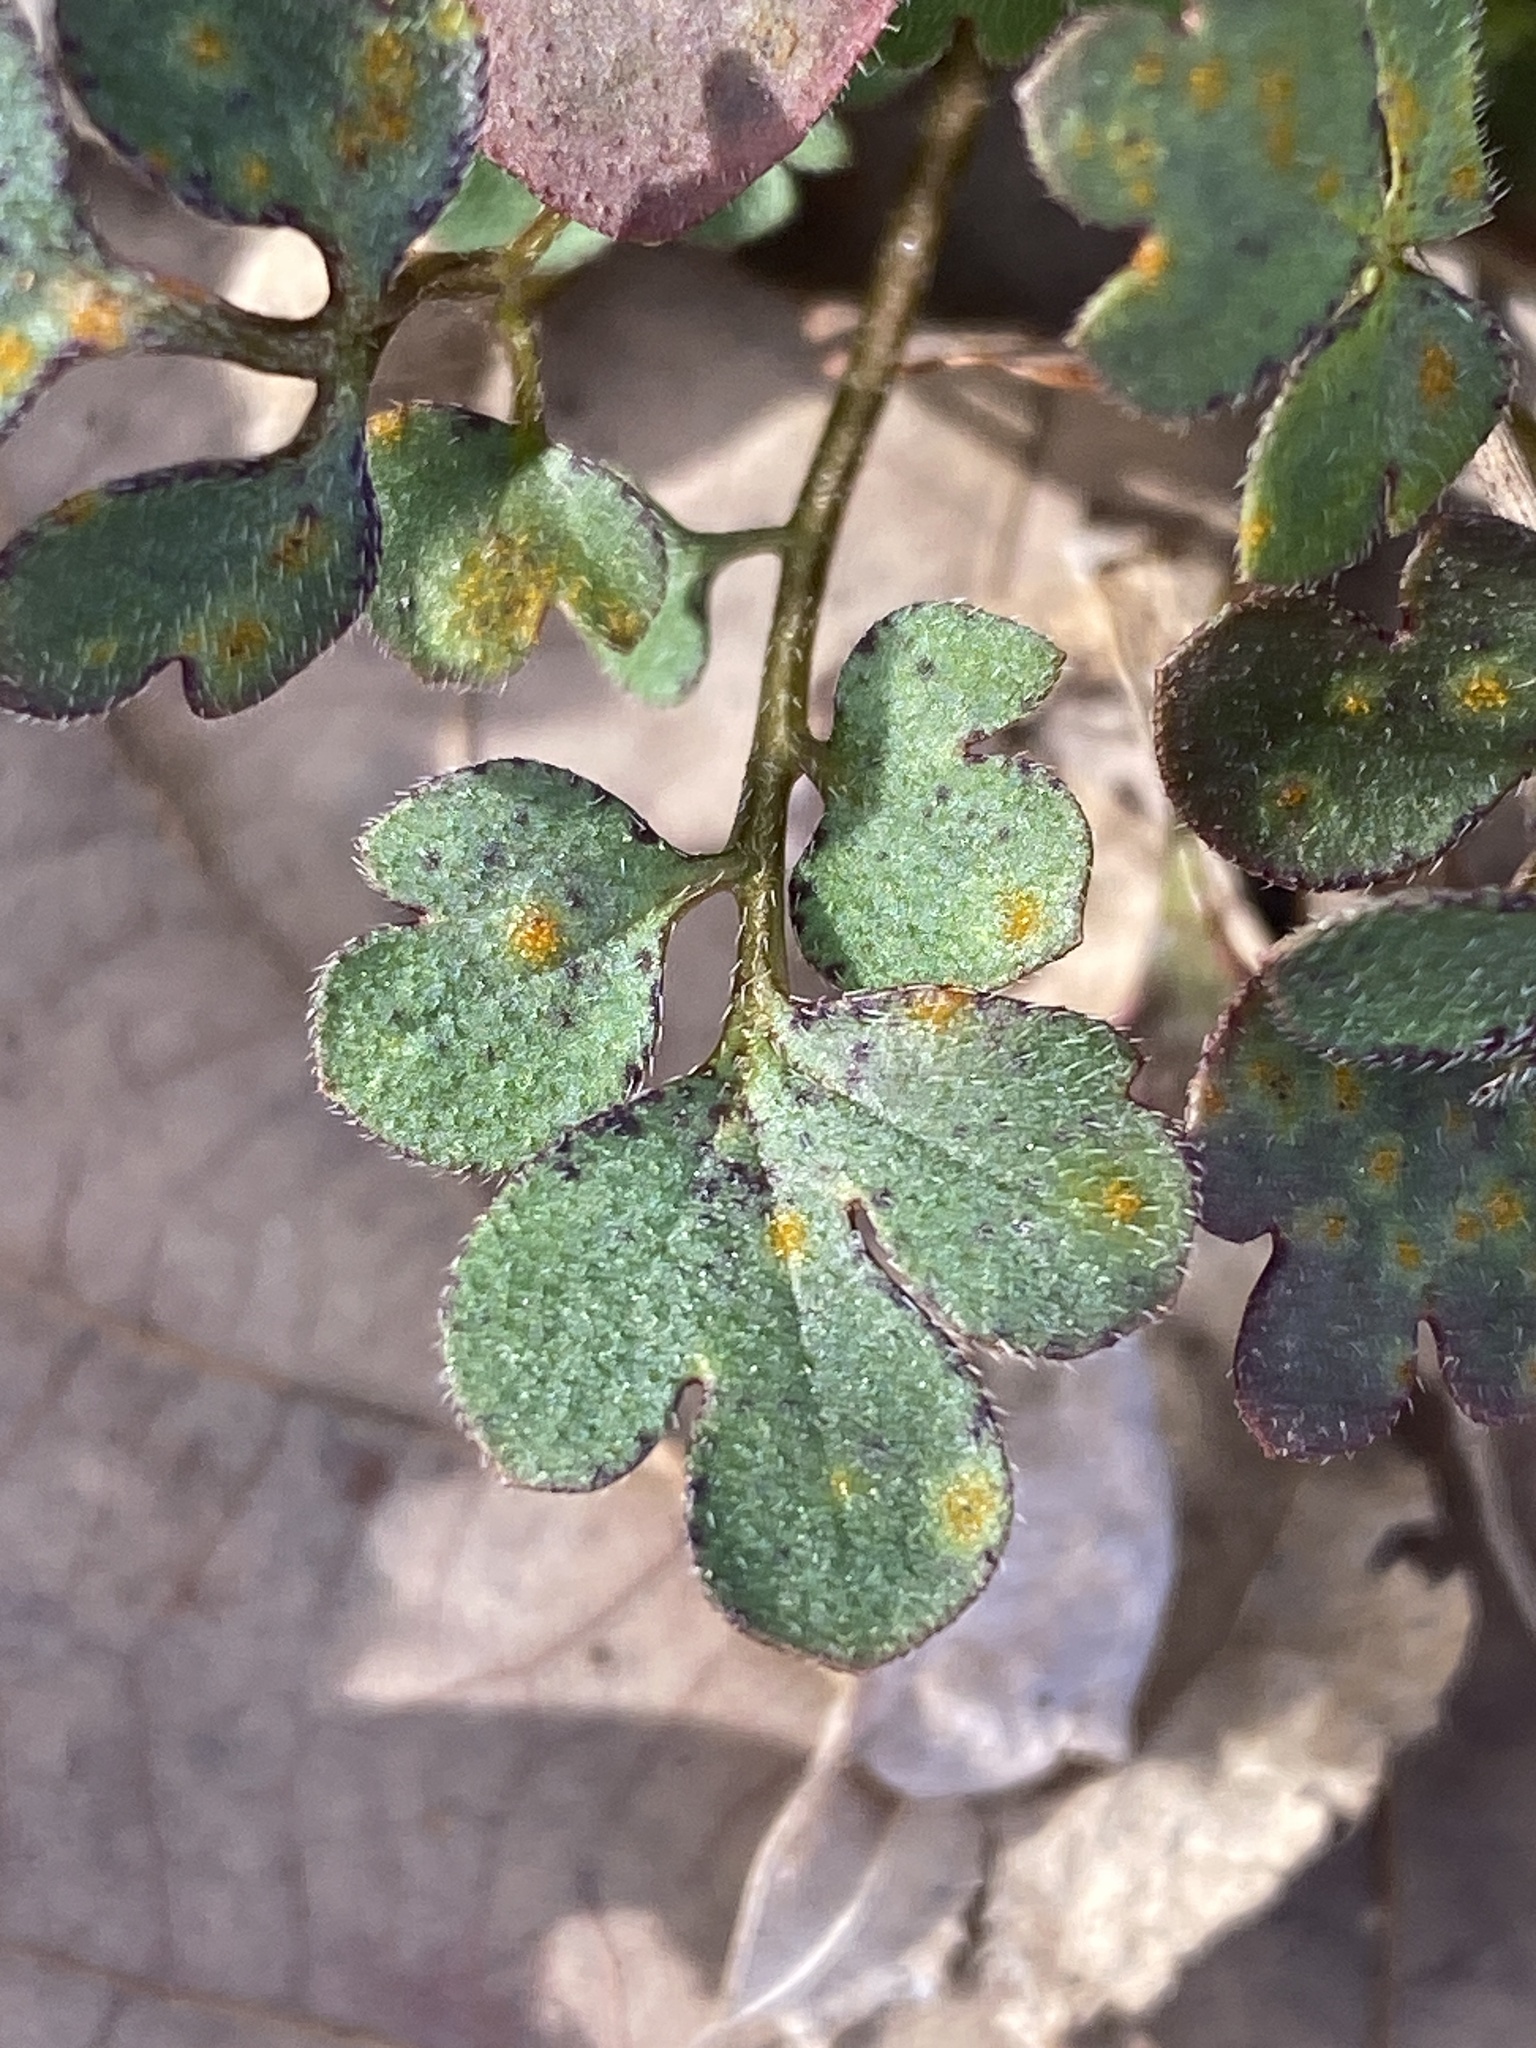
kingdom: Plantae
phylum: Tracheophyta
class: Magnoliopsida
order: Boraginales
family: Hydrophyllaceae
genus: Phacelia
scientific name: Phacelia covillei
